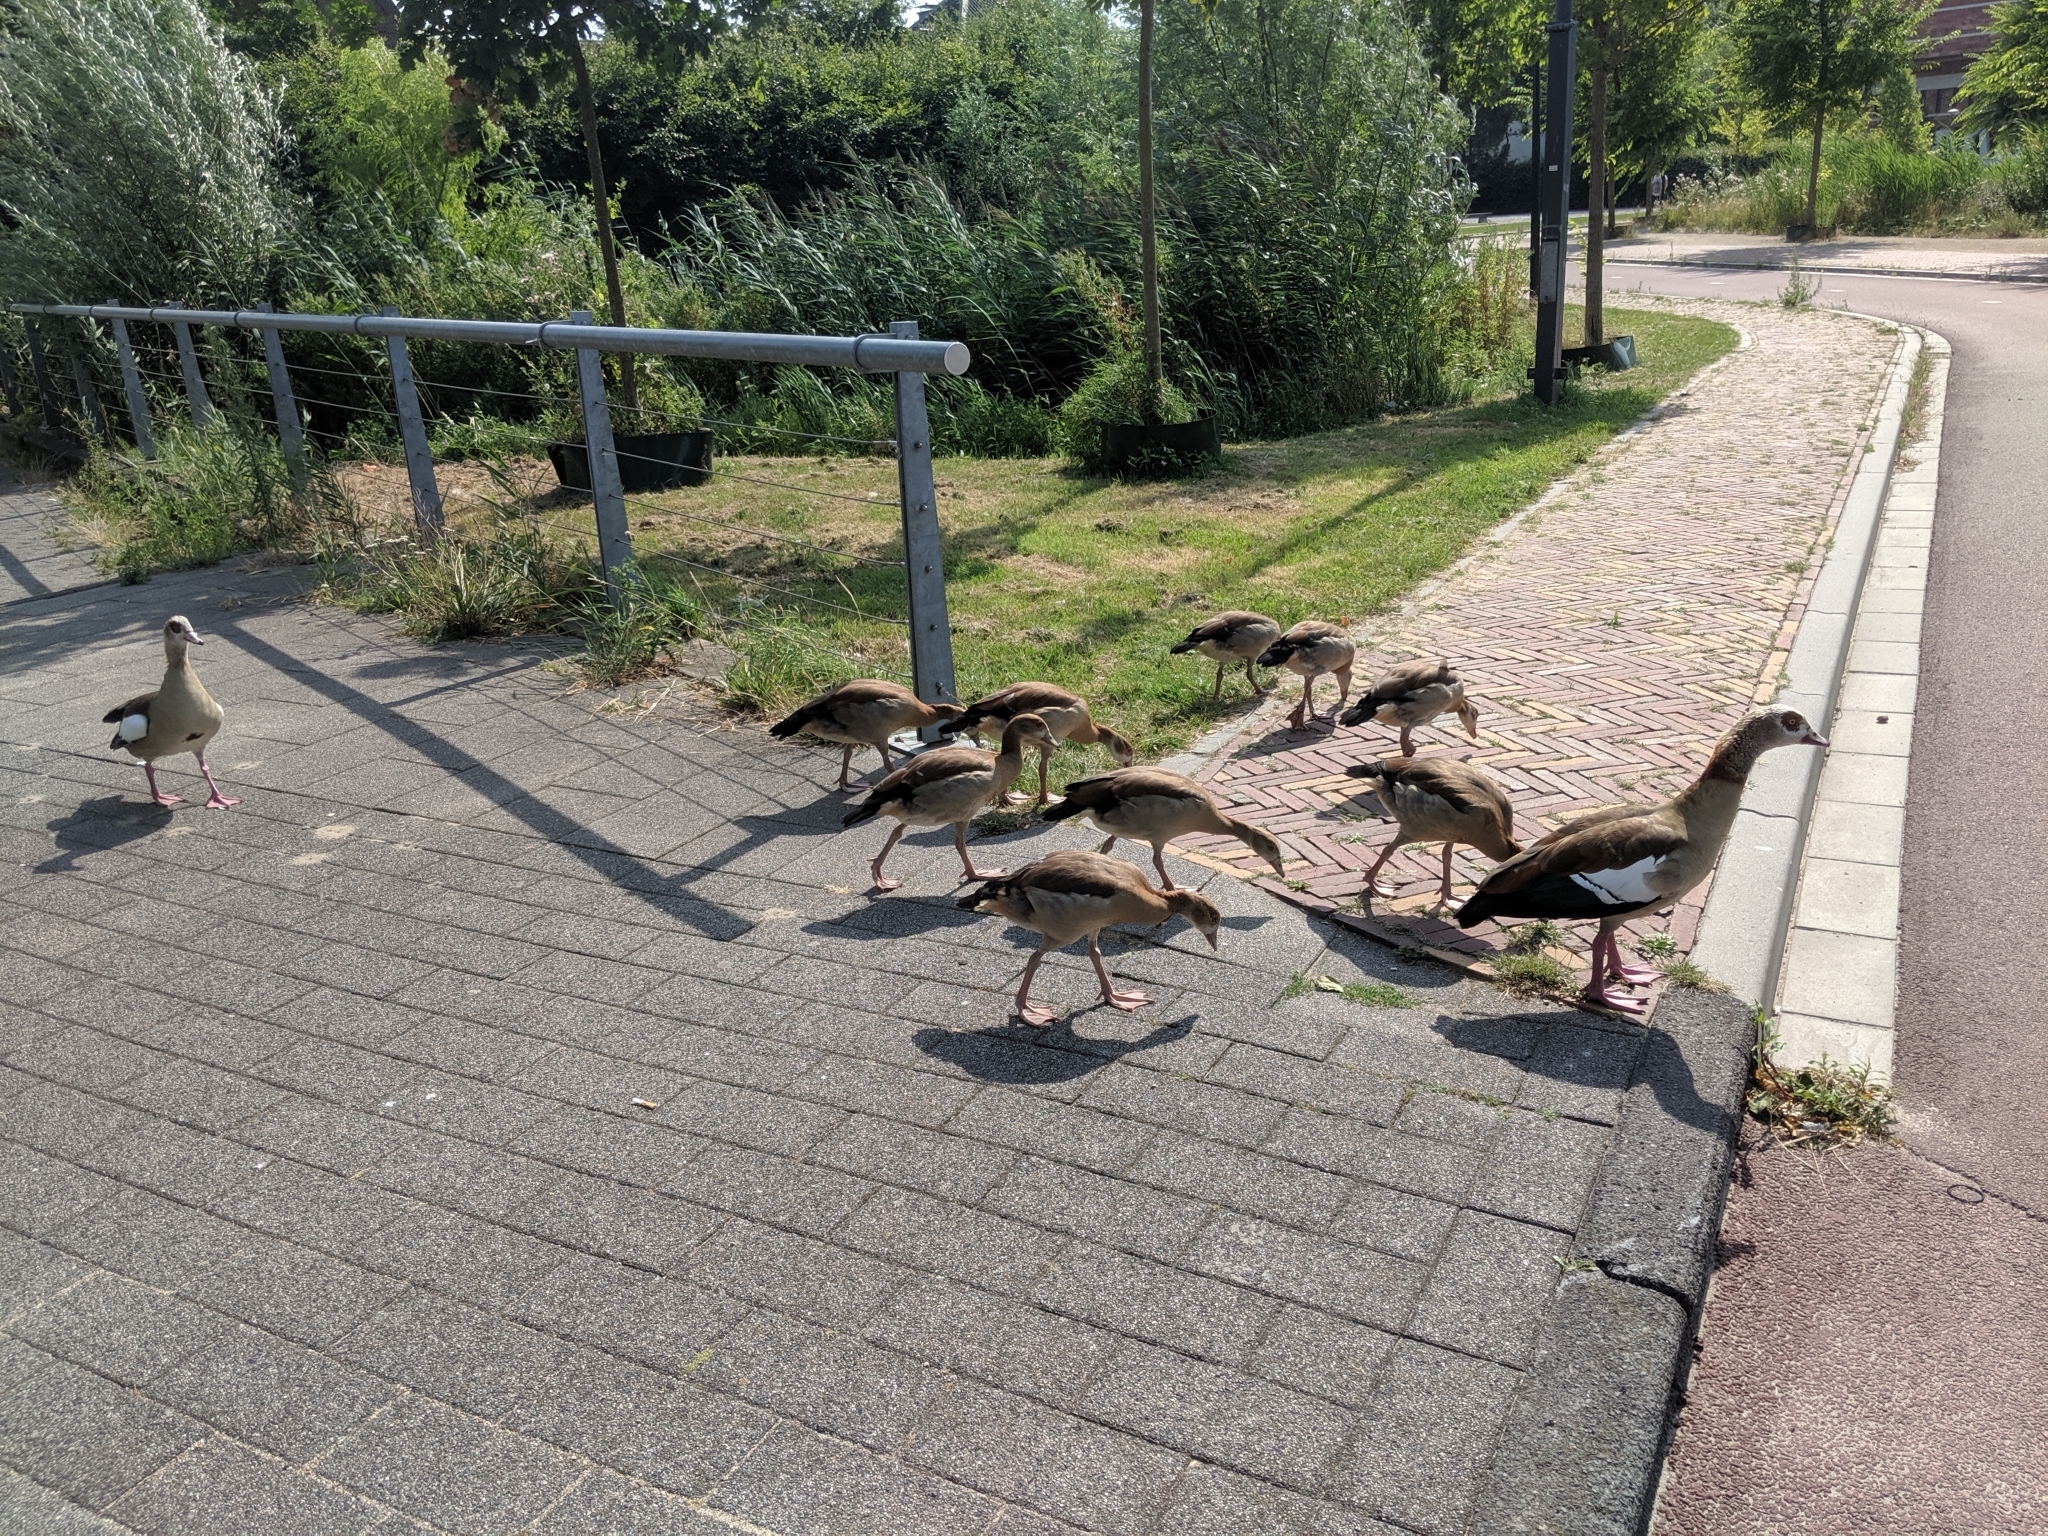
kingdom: Animalia
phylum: Chordata
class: Aves
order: Anseriformes
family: Anatidae
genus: Alopochen
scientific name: Alopochen aegyptiaca
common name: Egyptian goose
